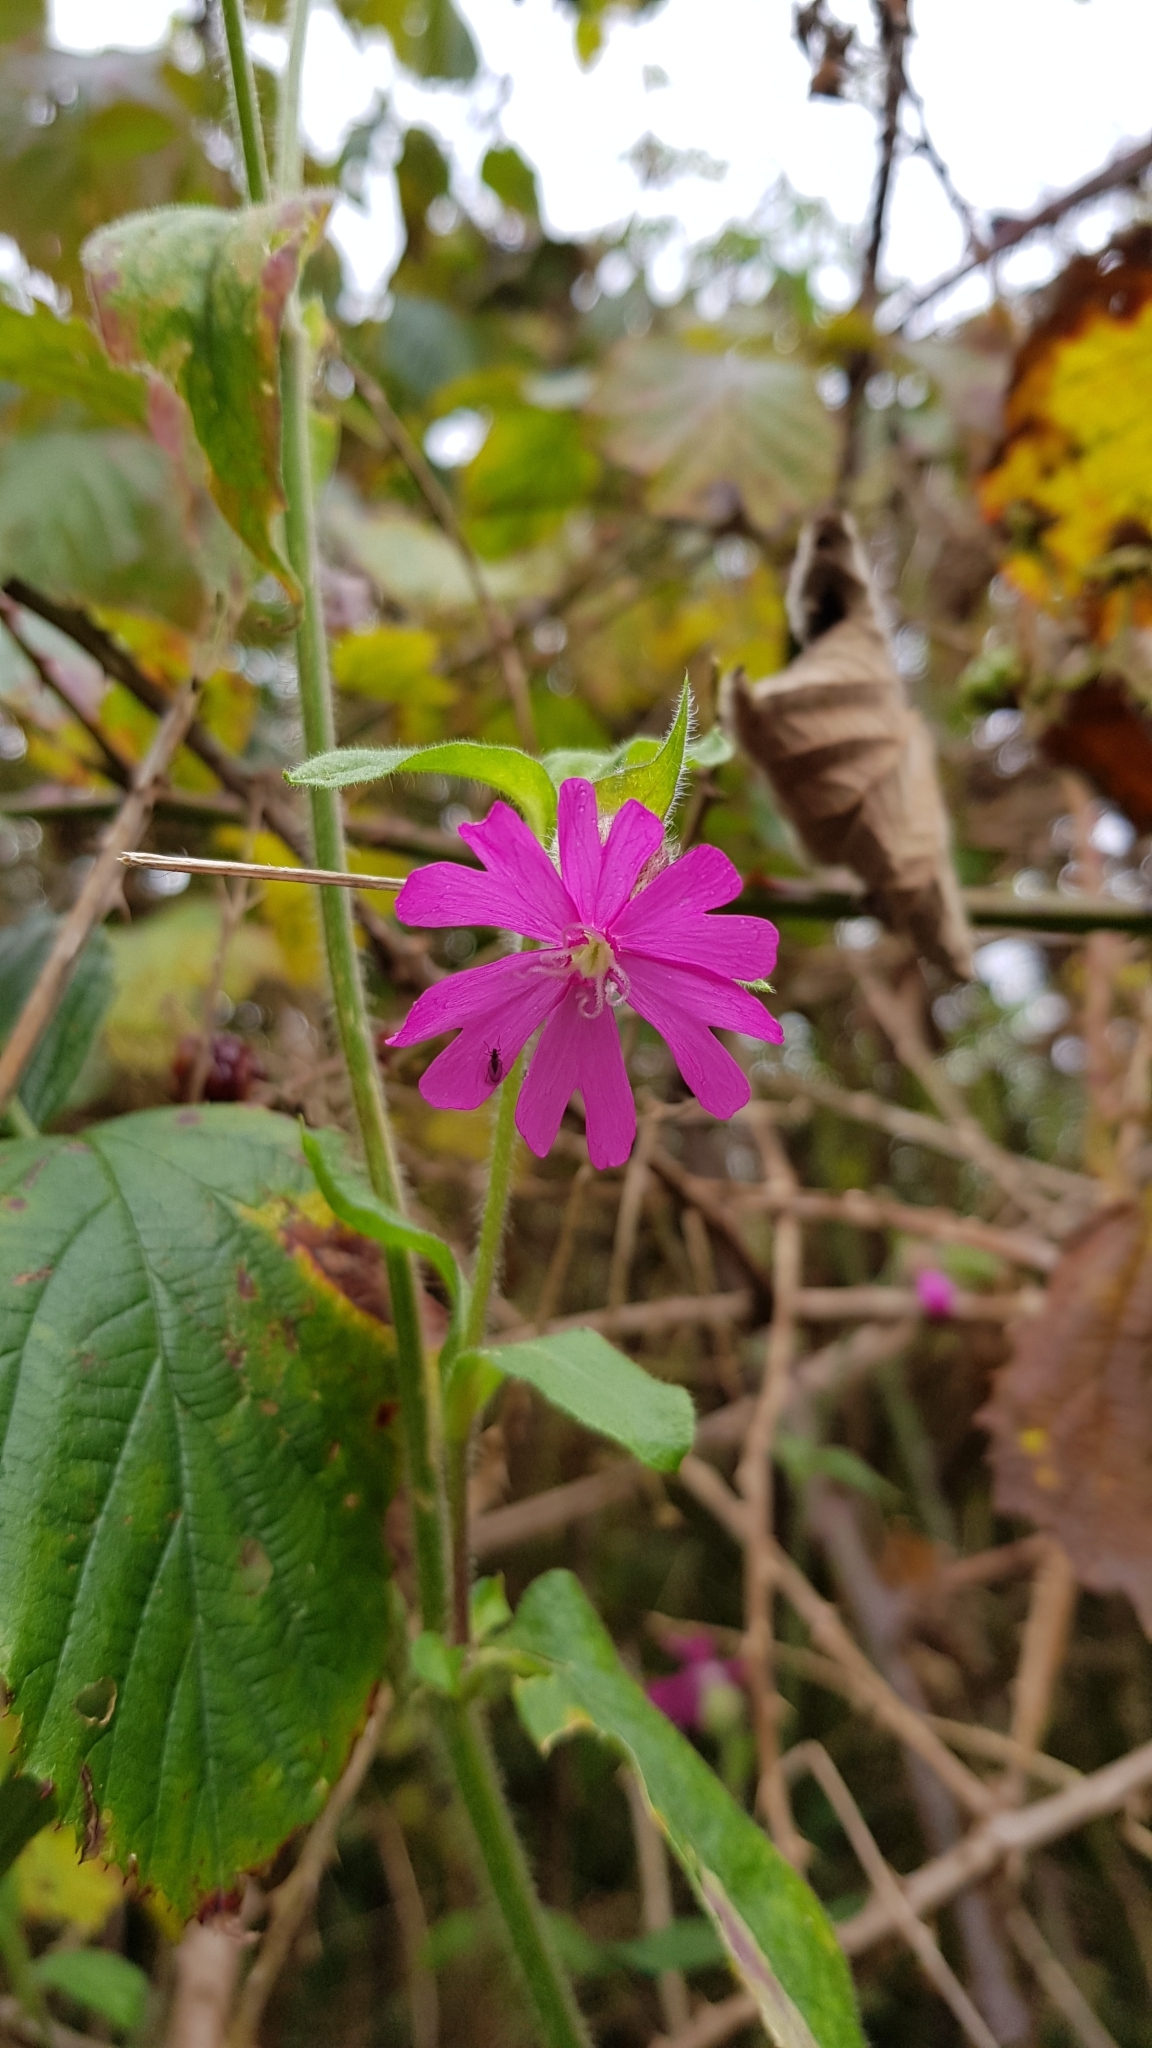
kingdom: Plantae
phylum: Tracheophyta
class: Magnoliopsida
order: Caryophyllales
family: Caryophyllaceae
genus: Silene
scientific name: Silene dioica
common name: Red campion
